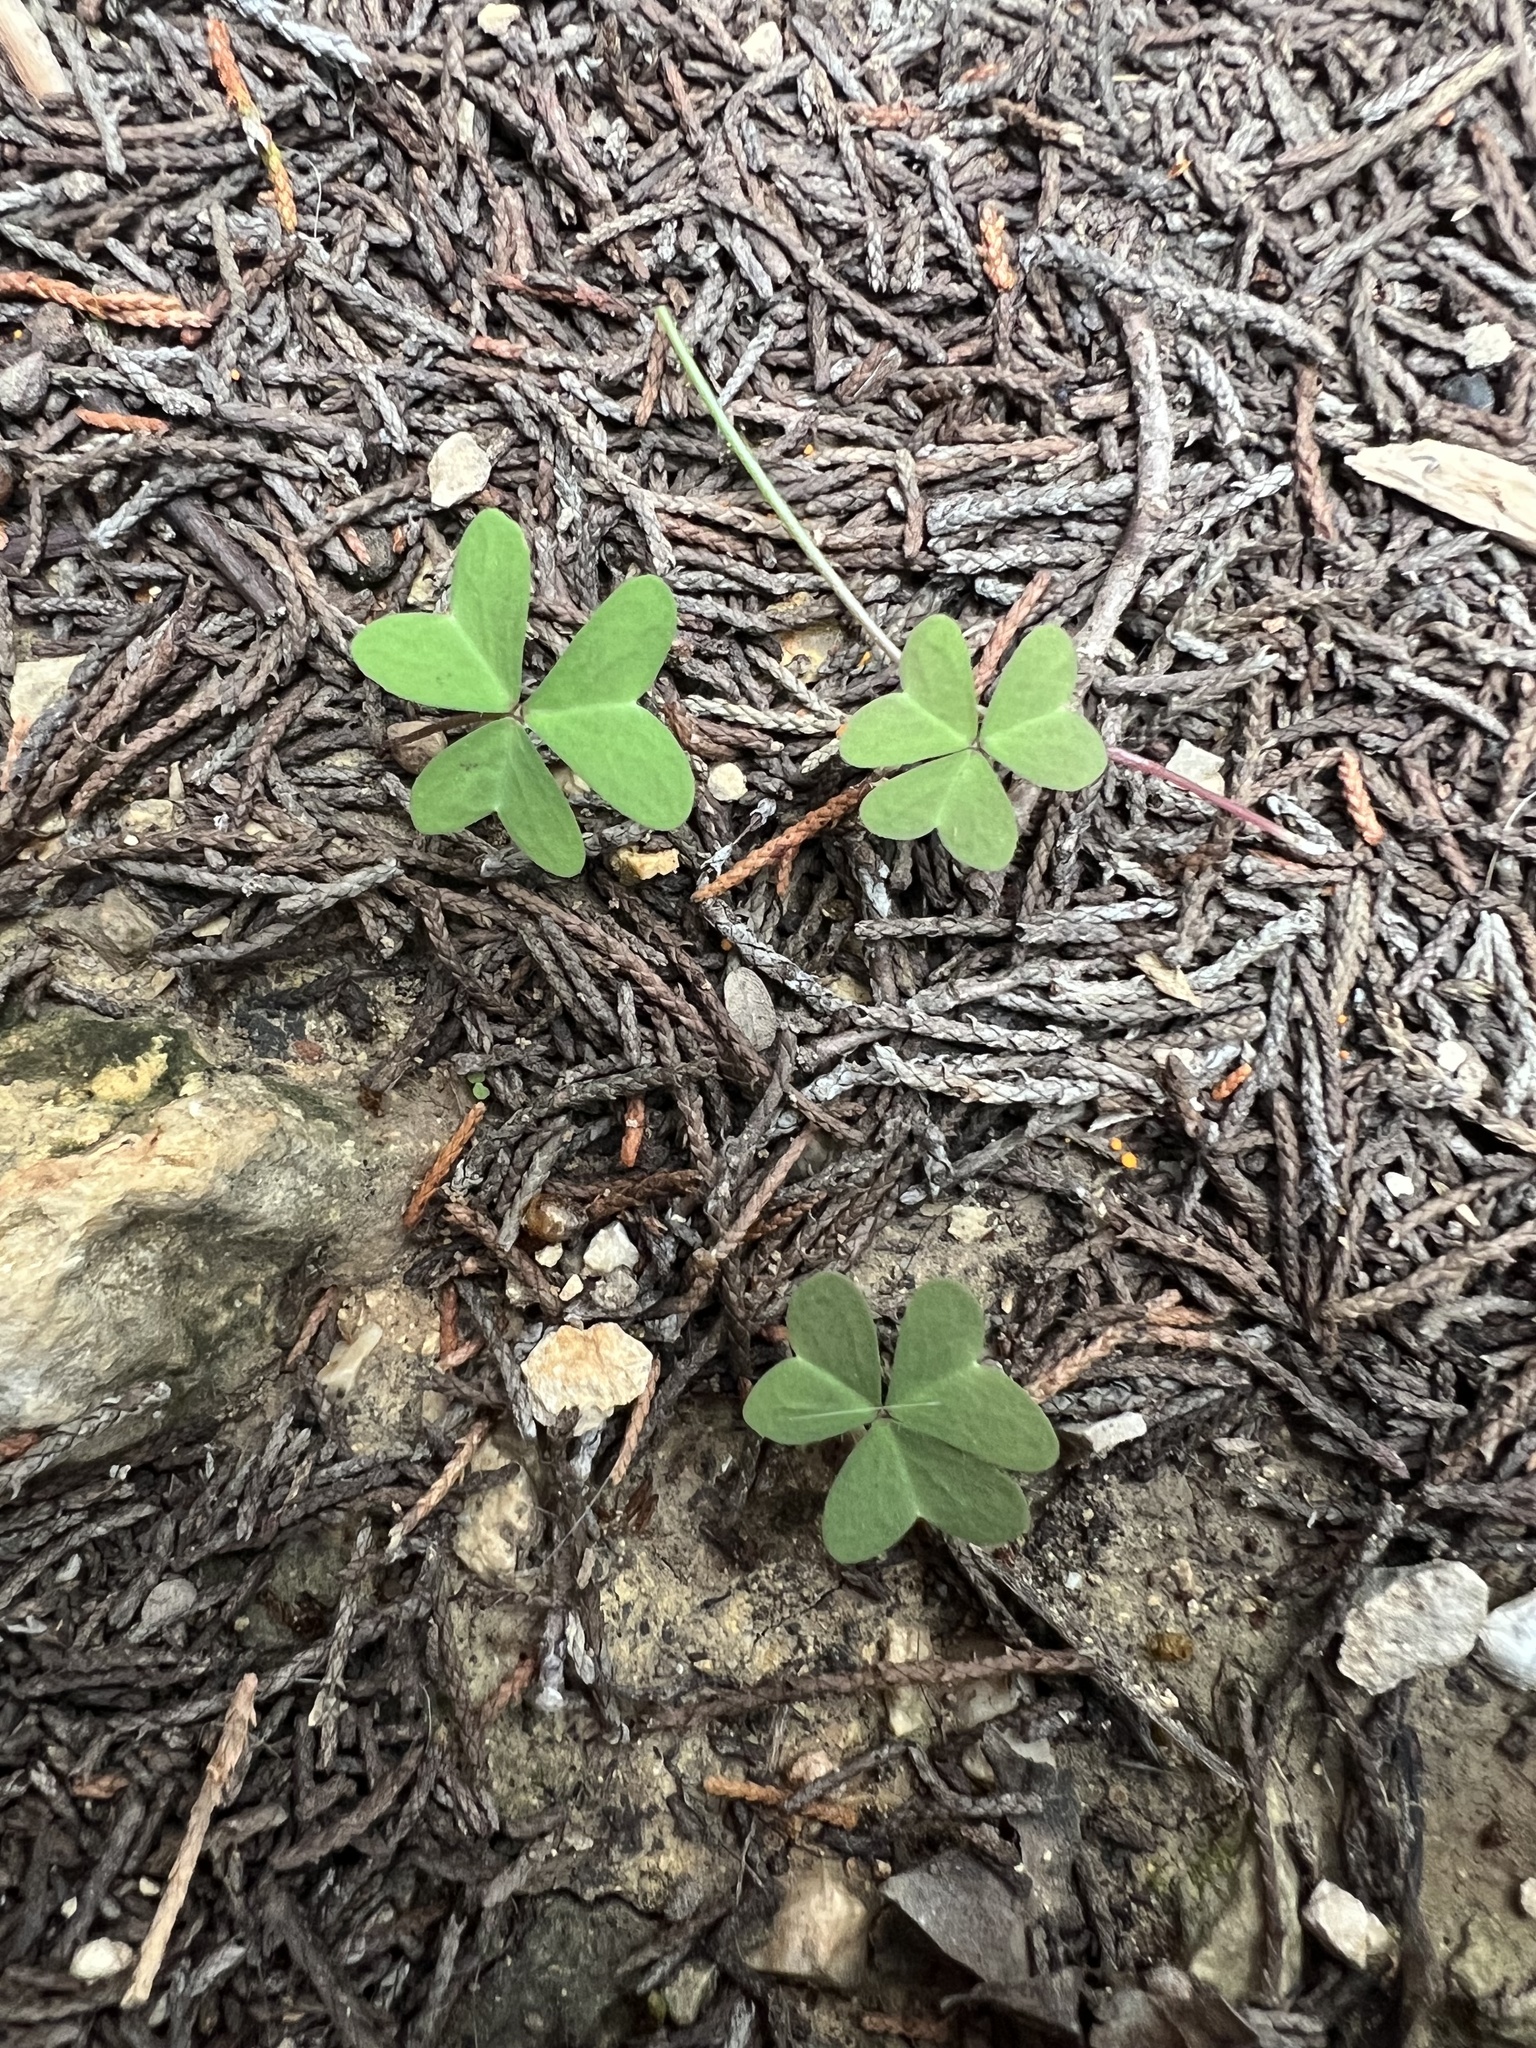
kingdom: Plantae
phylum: Tracheophyta
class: Magnoliopsida
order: Oxalidales
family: Oxalidaceae
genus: Oxalis
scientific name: Oxalis drummondii
